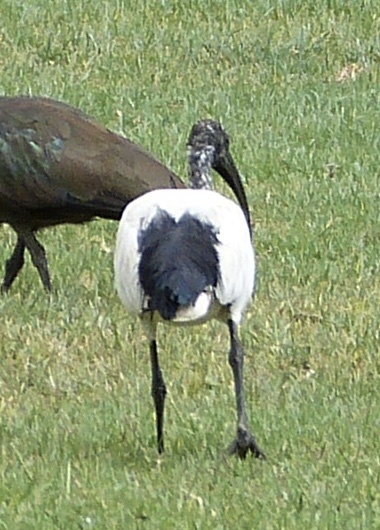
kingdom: Animalia
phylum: Chordata
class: Aves
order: Pelecaniformes
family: Threskiornithidae
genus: Threskiornis
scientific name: Threskiornis aethiopicus
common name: Sacred ibis
